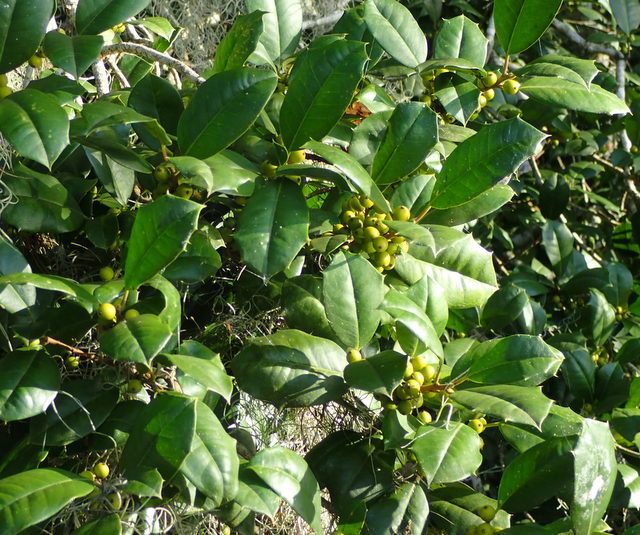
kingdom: Plantae
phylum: Tracheophyta
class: Magnoliopsida
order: Aquifoliales
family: Aquifoliaceae
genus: Ilex
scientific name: Ilex opaca
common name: American holly
